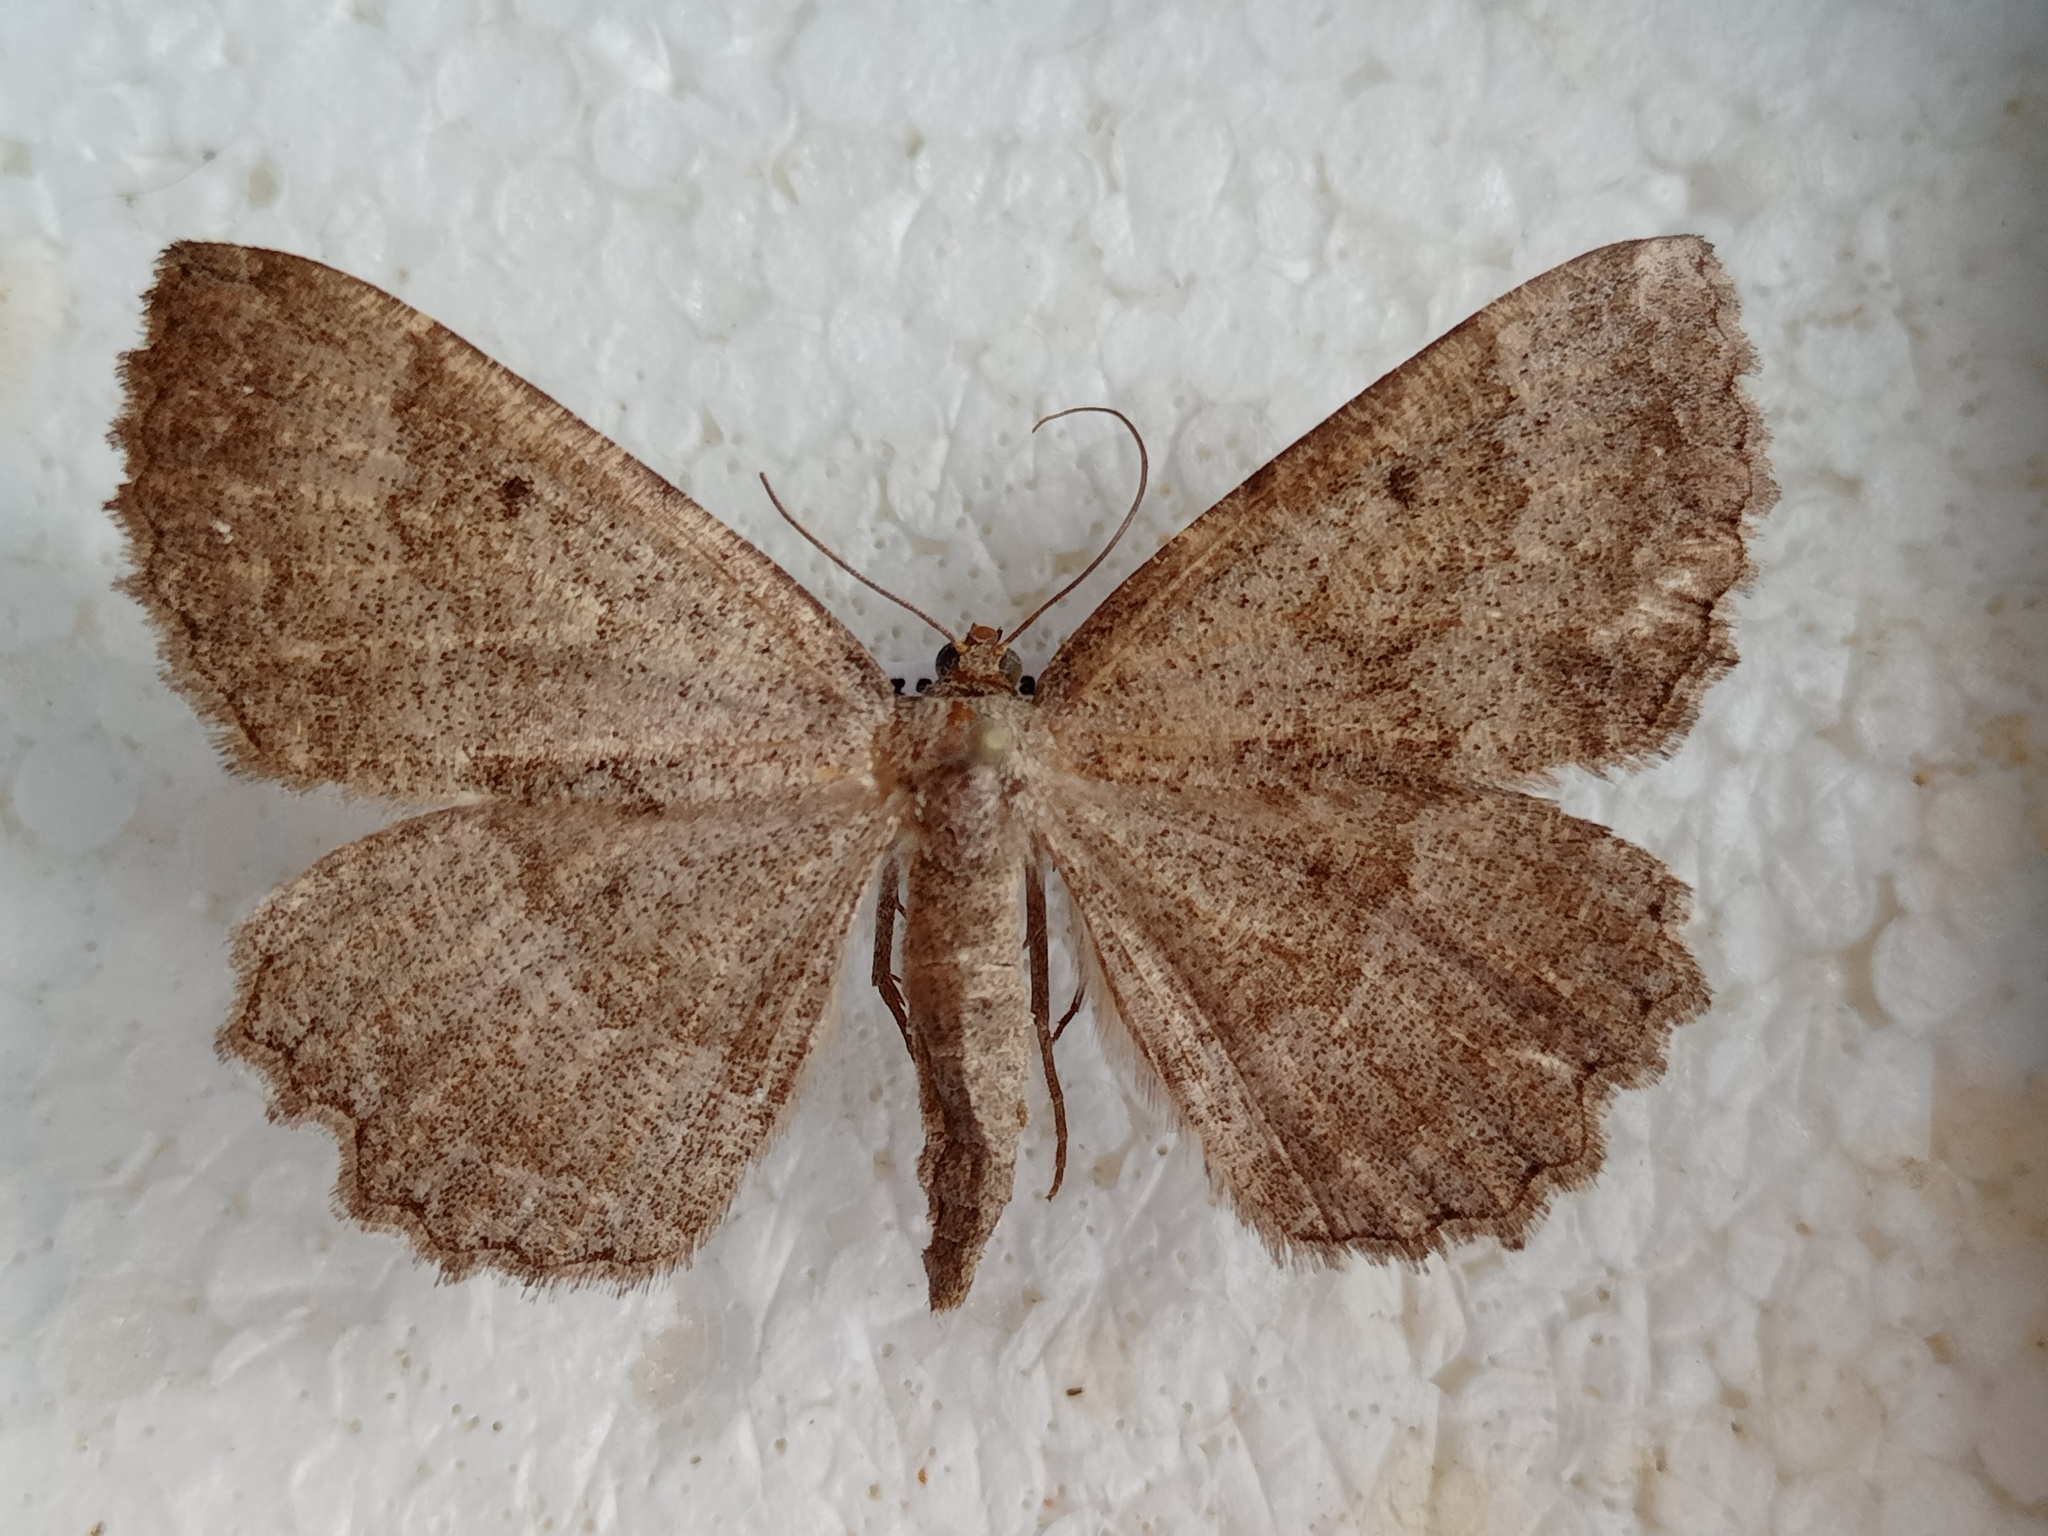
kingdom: Animalia
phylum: Arthropoda
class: Insecta
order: Lepidoptera
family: Geometridae
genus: Gnophos
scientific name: Gnophos furvata
